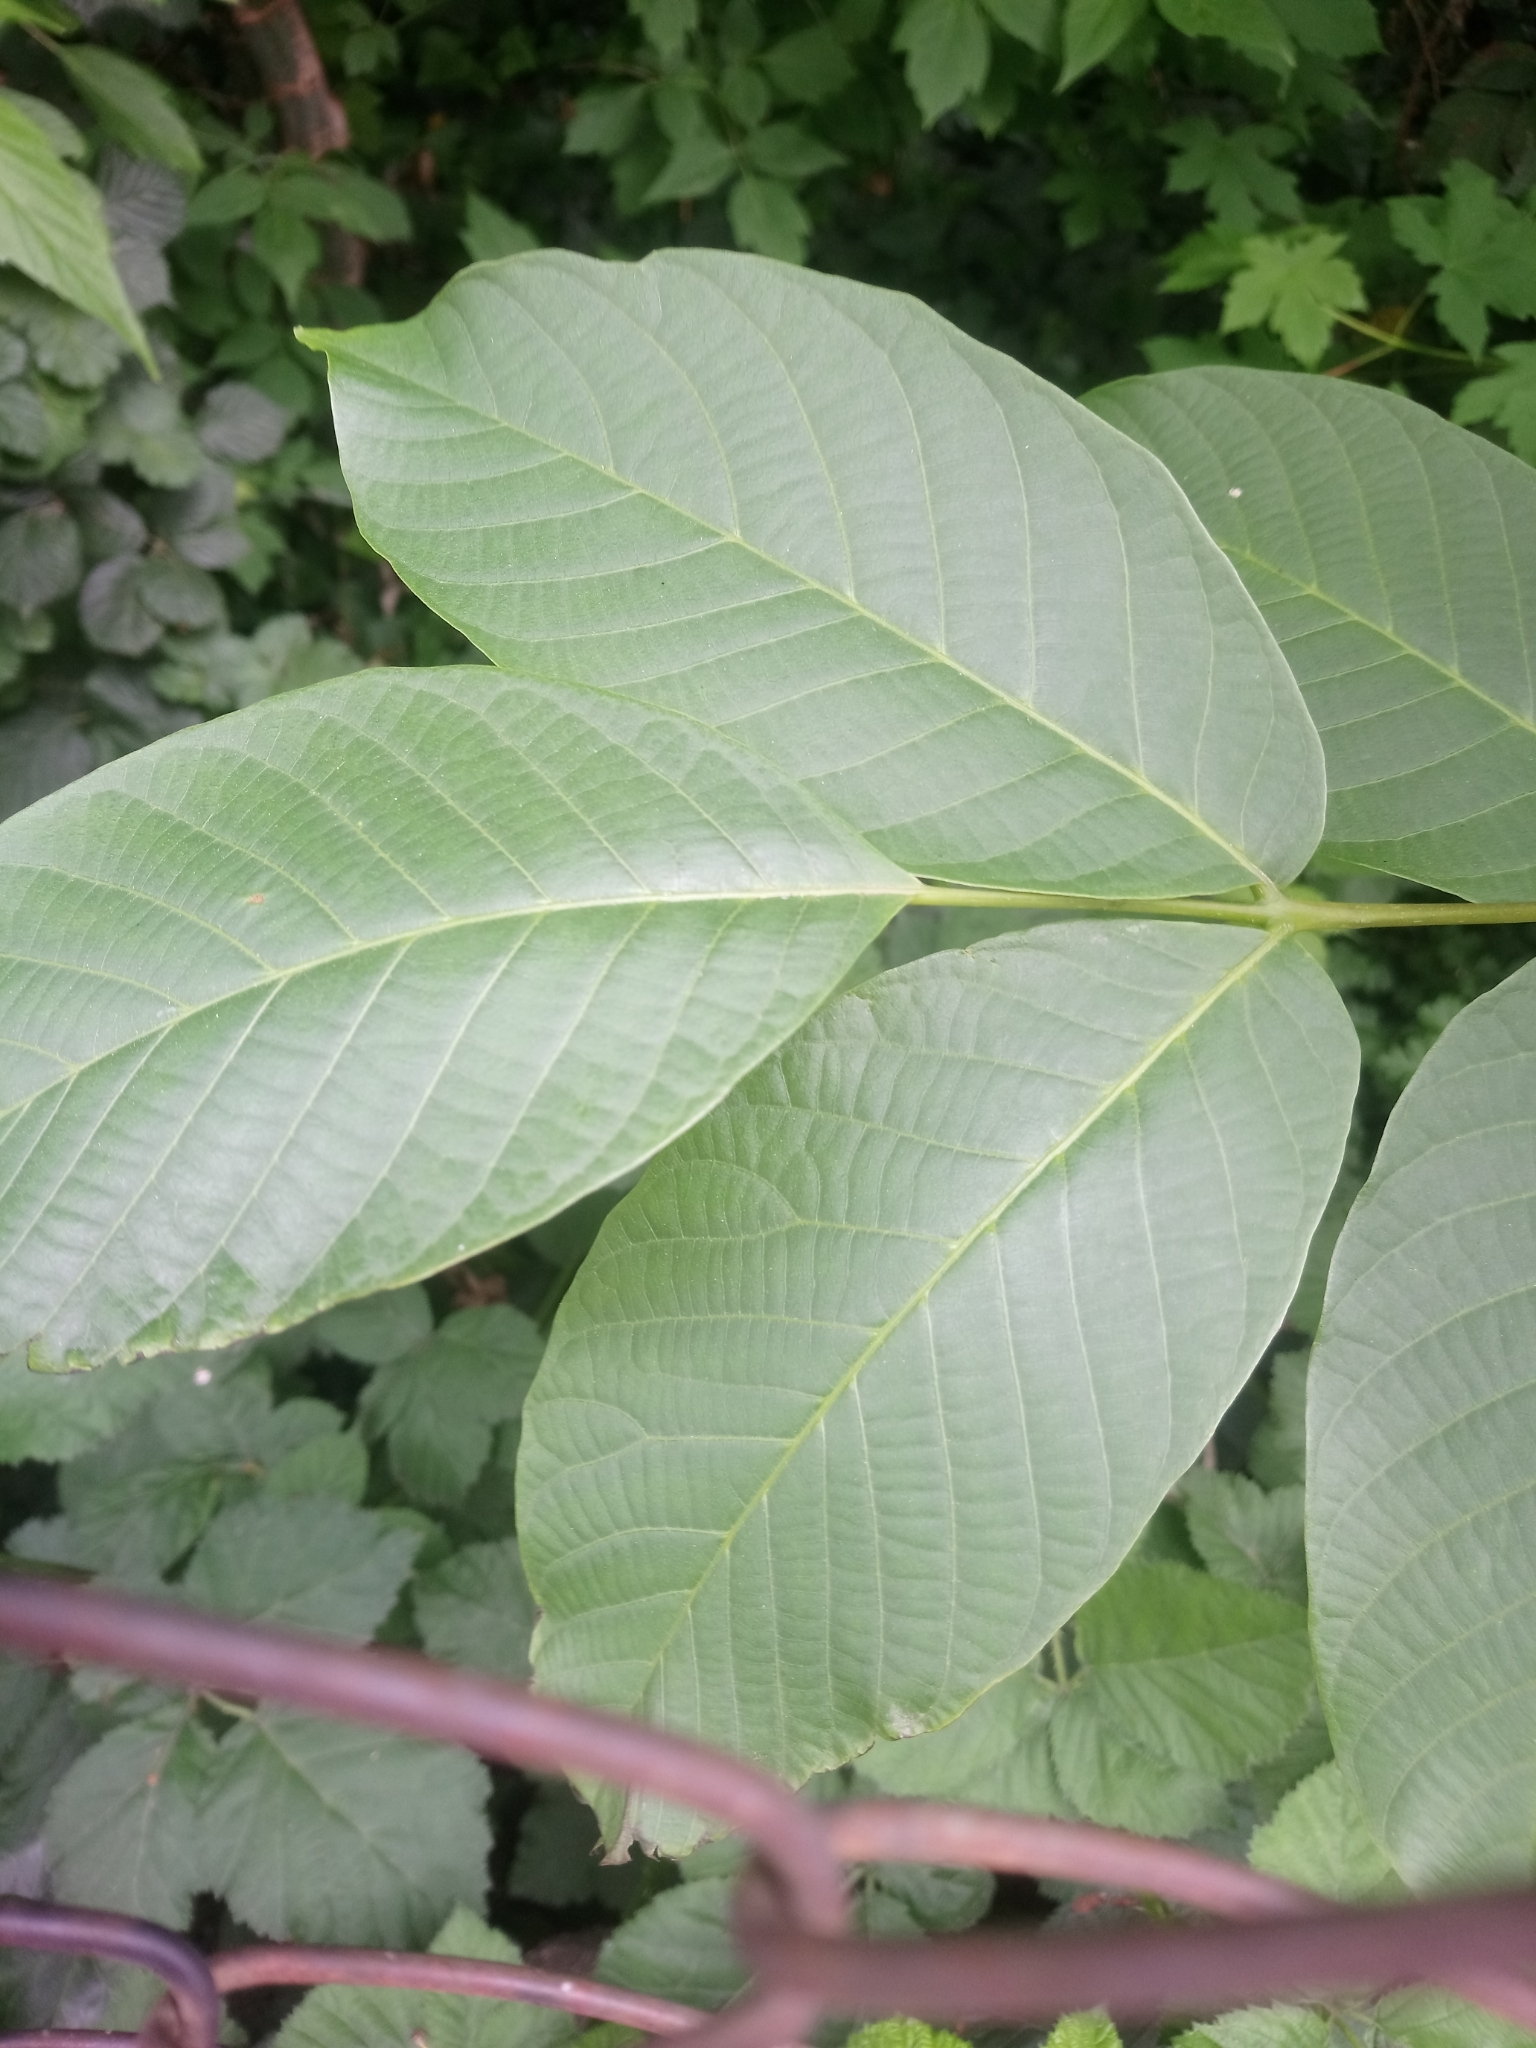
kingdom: Plantae
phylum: Tracheophyta
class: Magnoliopsida
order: Fagales
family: Juglandaceae
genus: Juglans
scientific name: Juglans regia
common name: Walnut
